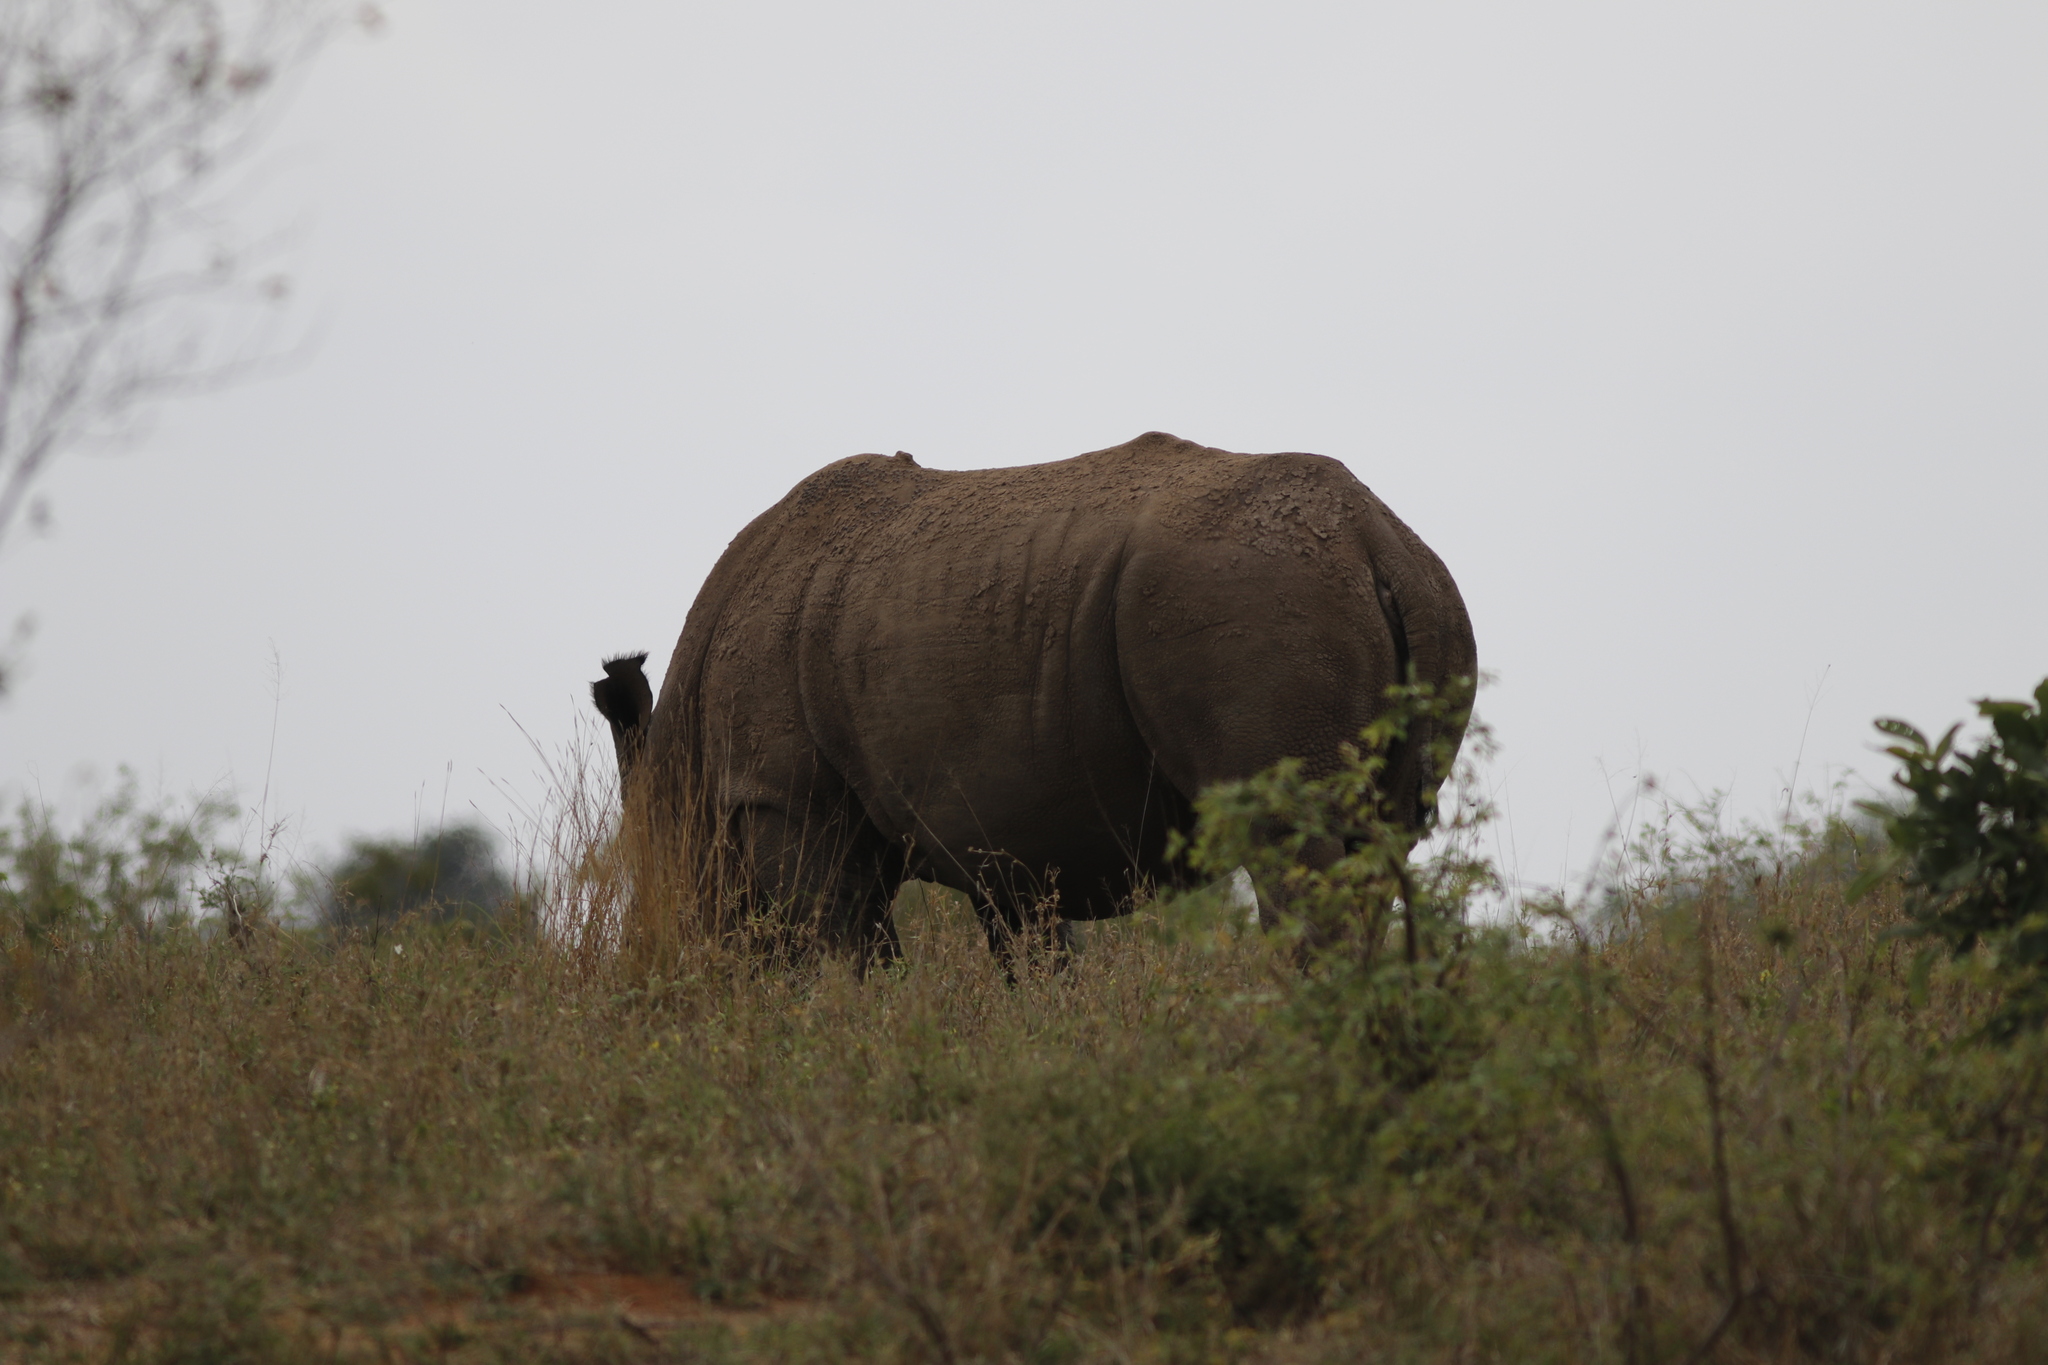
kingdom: Animalia
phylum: Chordata
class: Mammalia
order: Perissodactyla
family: Rhinocerotidae
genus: Ceratotherium
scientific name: Ceratotherium simum
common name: White rhinoceros
